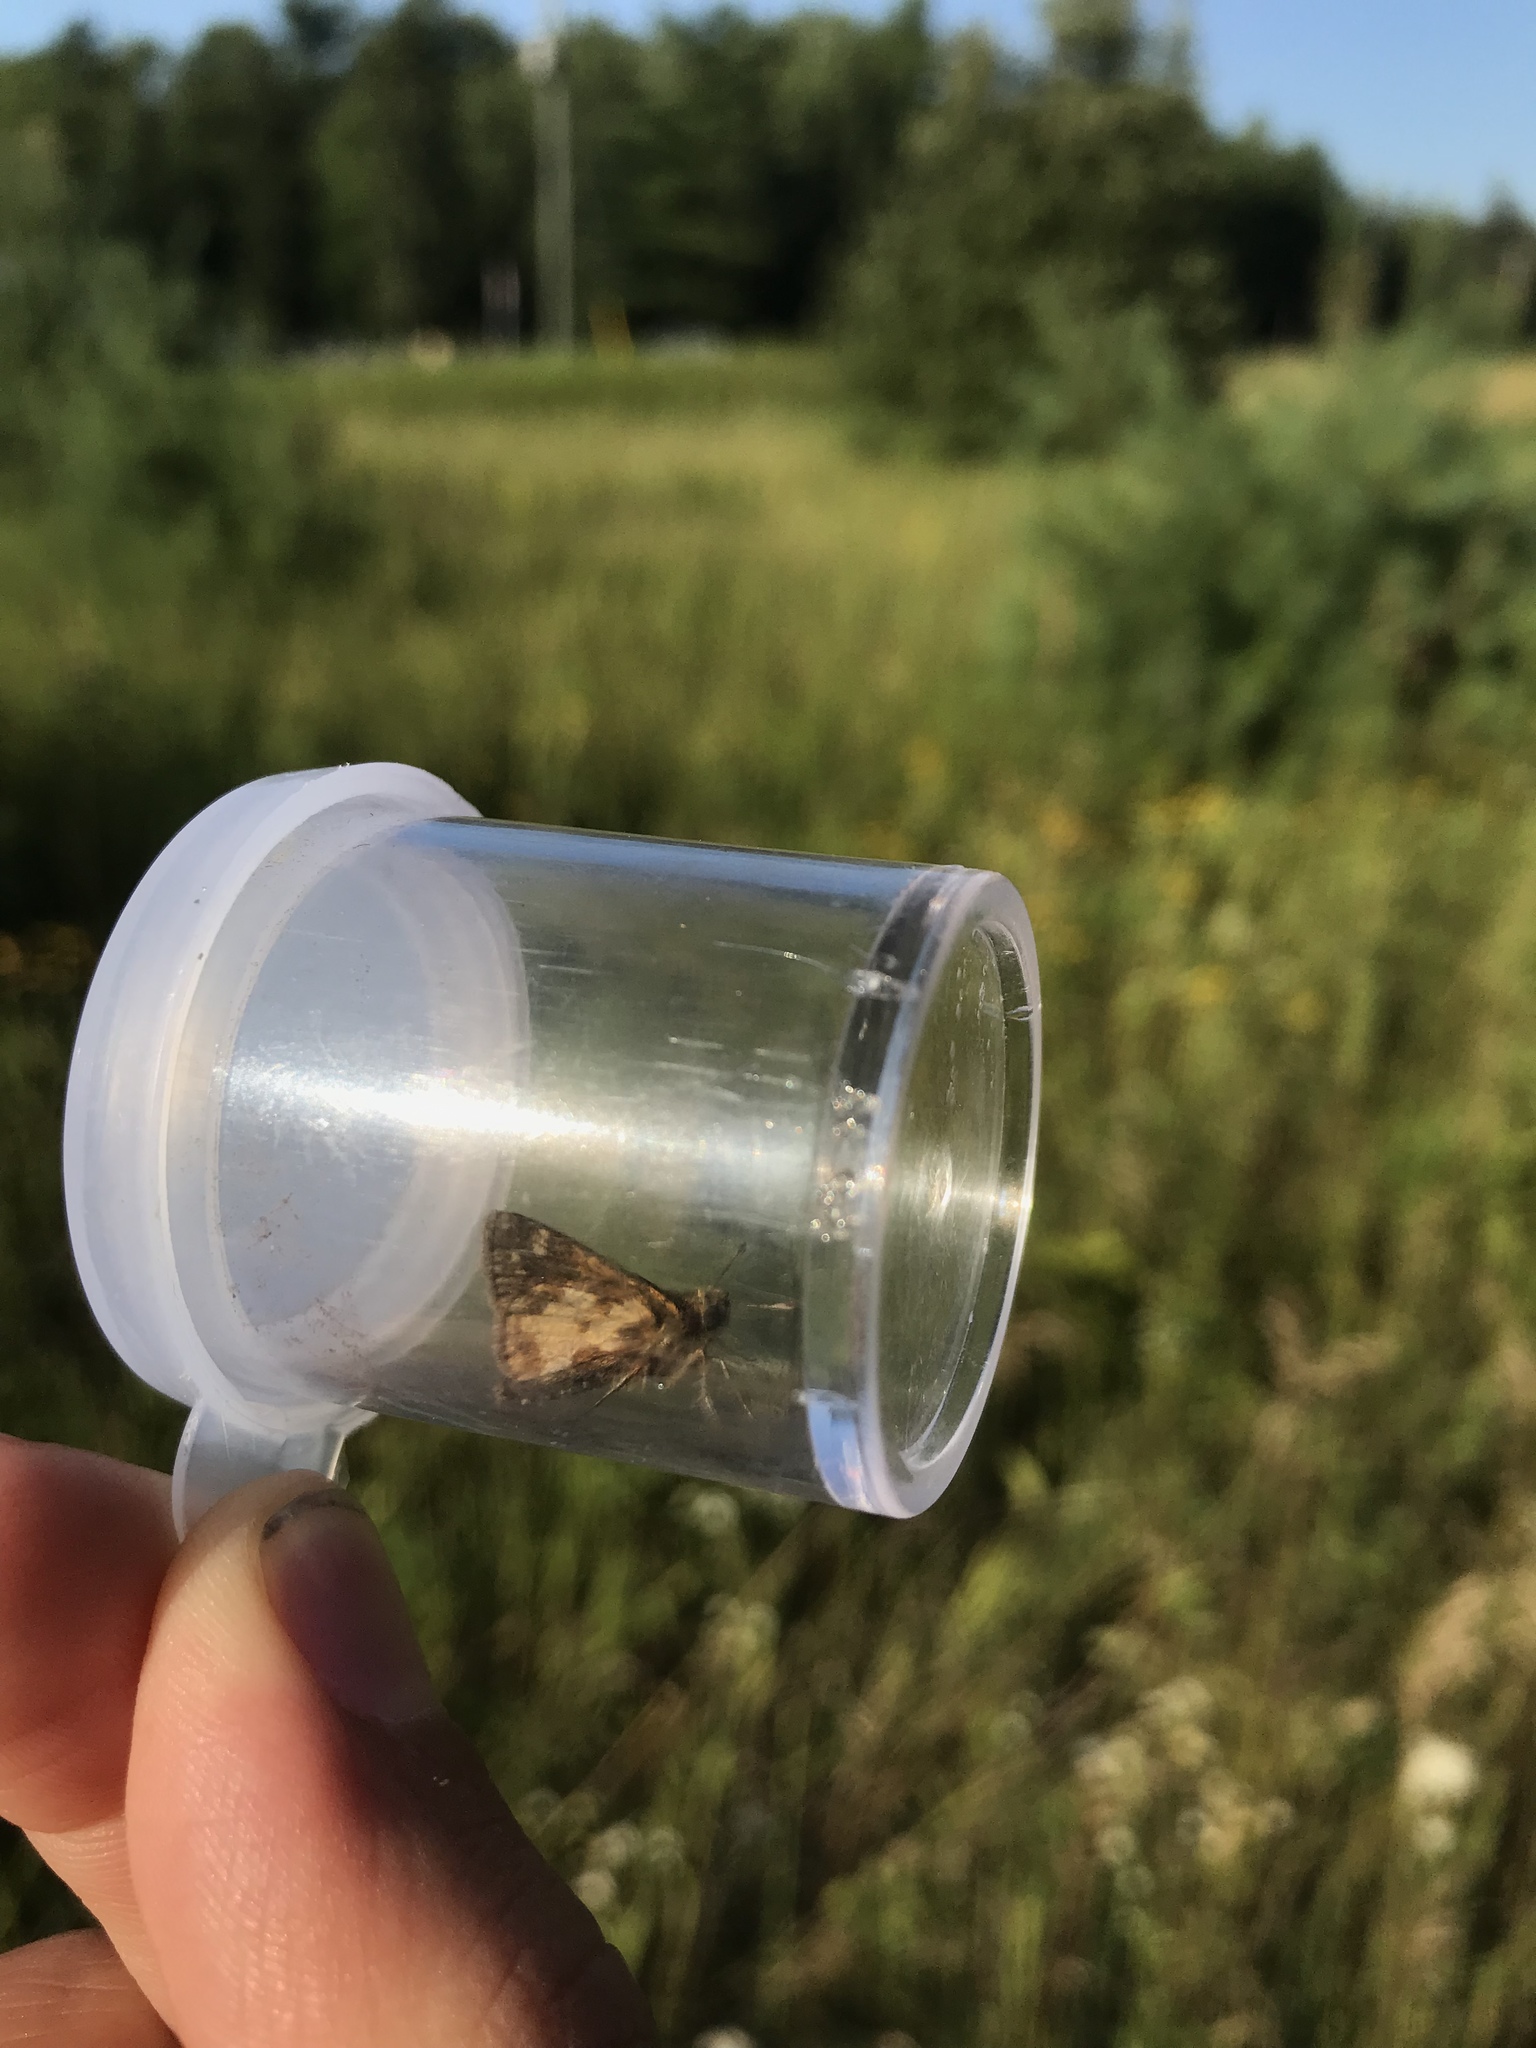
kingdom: Animalia
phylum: Arthropoda
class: Insecta
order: Lepidoptera
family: Hesperiidae
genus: Polites
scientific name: Polites coras
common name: Peck's skipper
